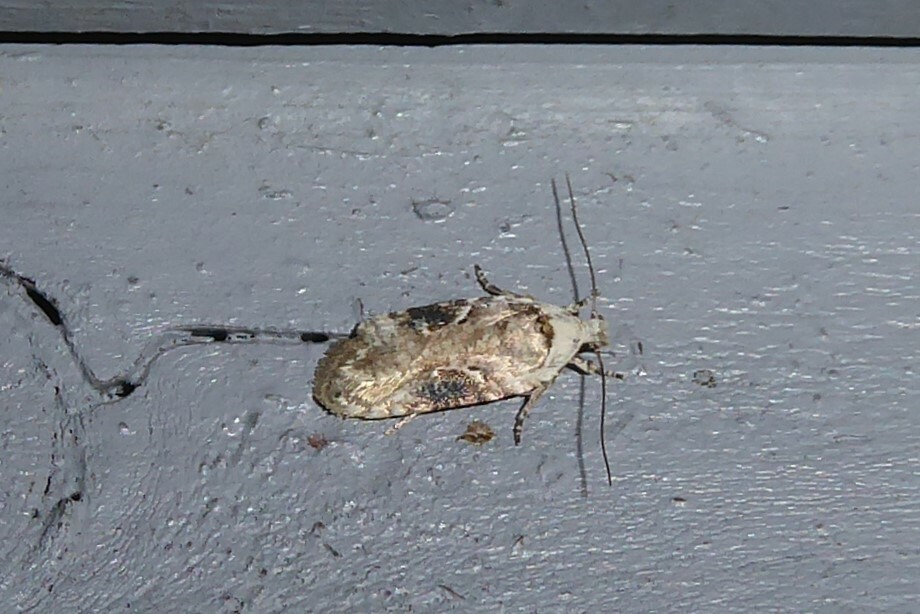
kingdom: Animalia
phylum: Arthropoda
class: Insecta
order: Lepidoptera
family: Depressariidae
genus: Agonopterix
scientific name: Agonopterix alstroemeriana
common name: Moth
